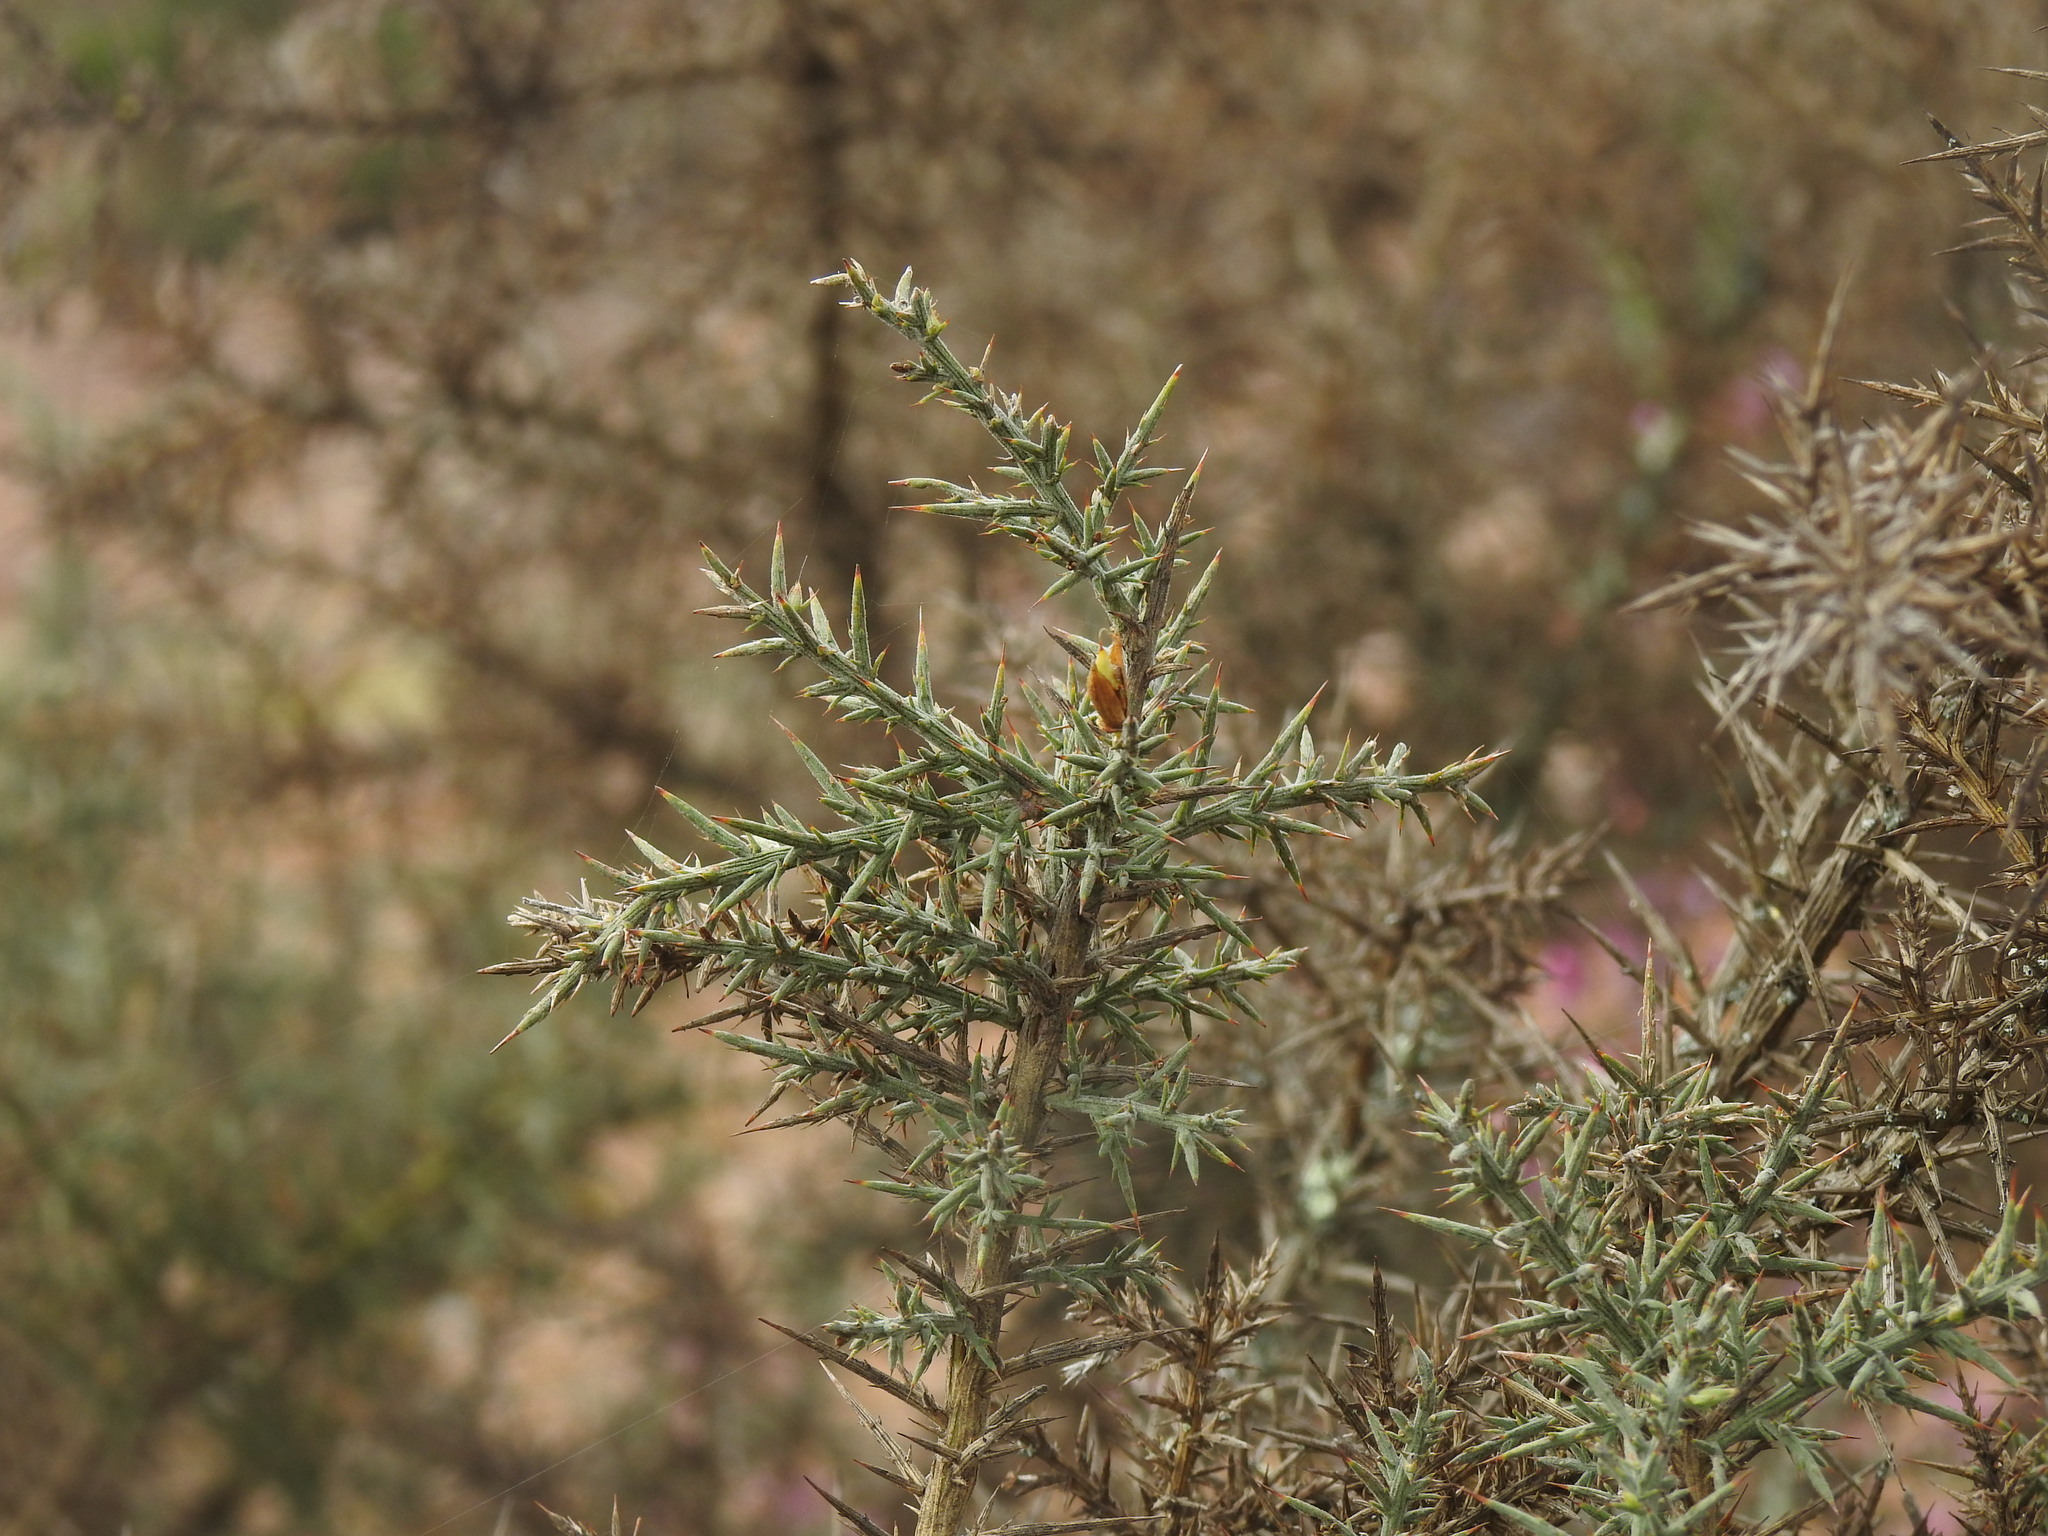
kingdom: Plantae
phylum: Tracheophyta
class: Magnoliopsida
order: Fabales
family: Fabaceae
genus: Ulex
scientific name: Ulex eriocladus
